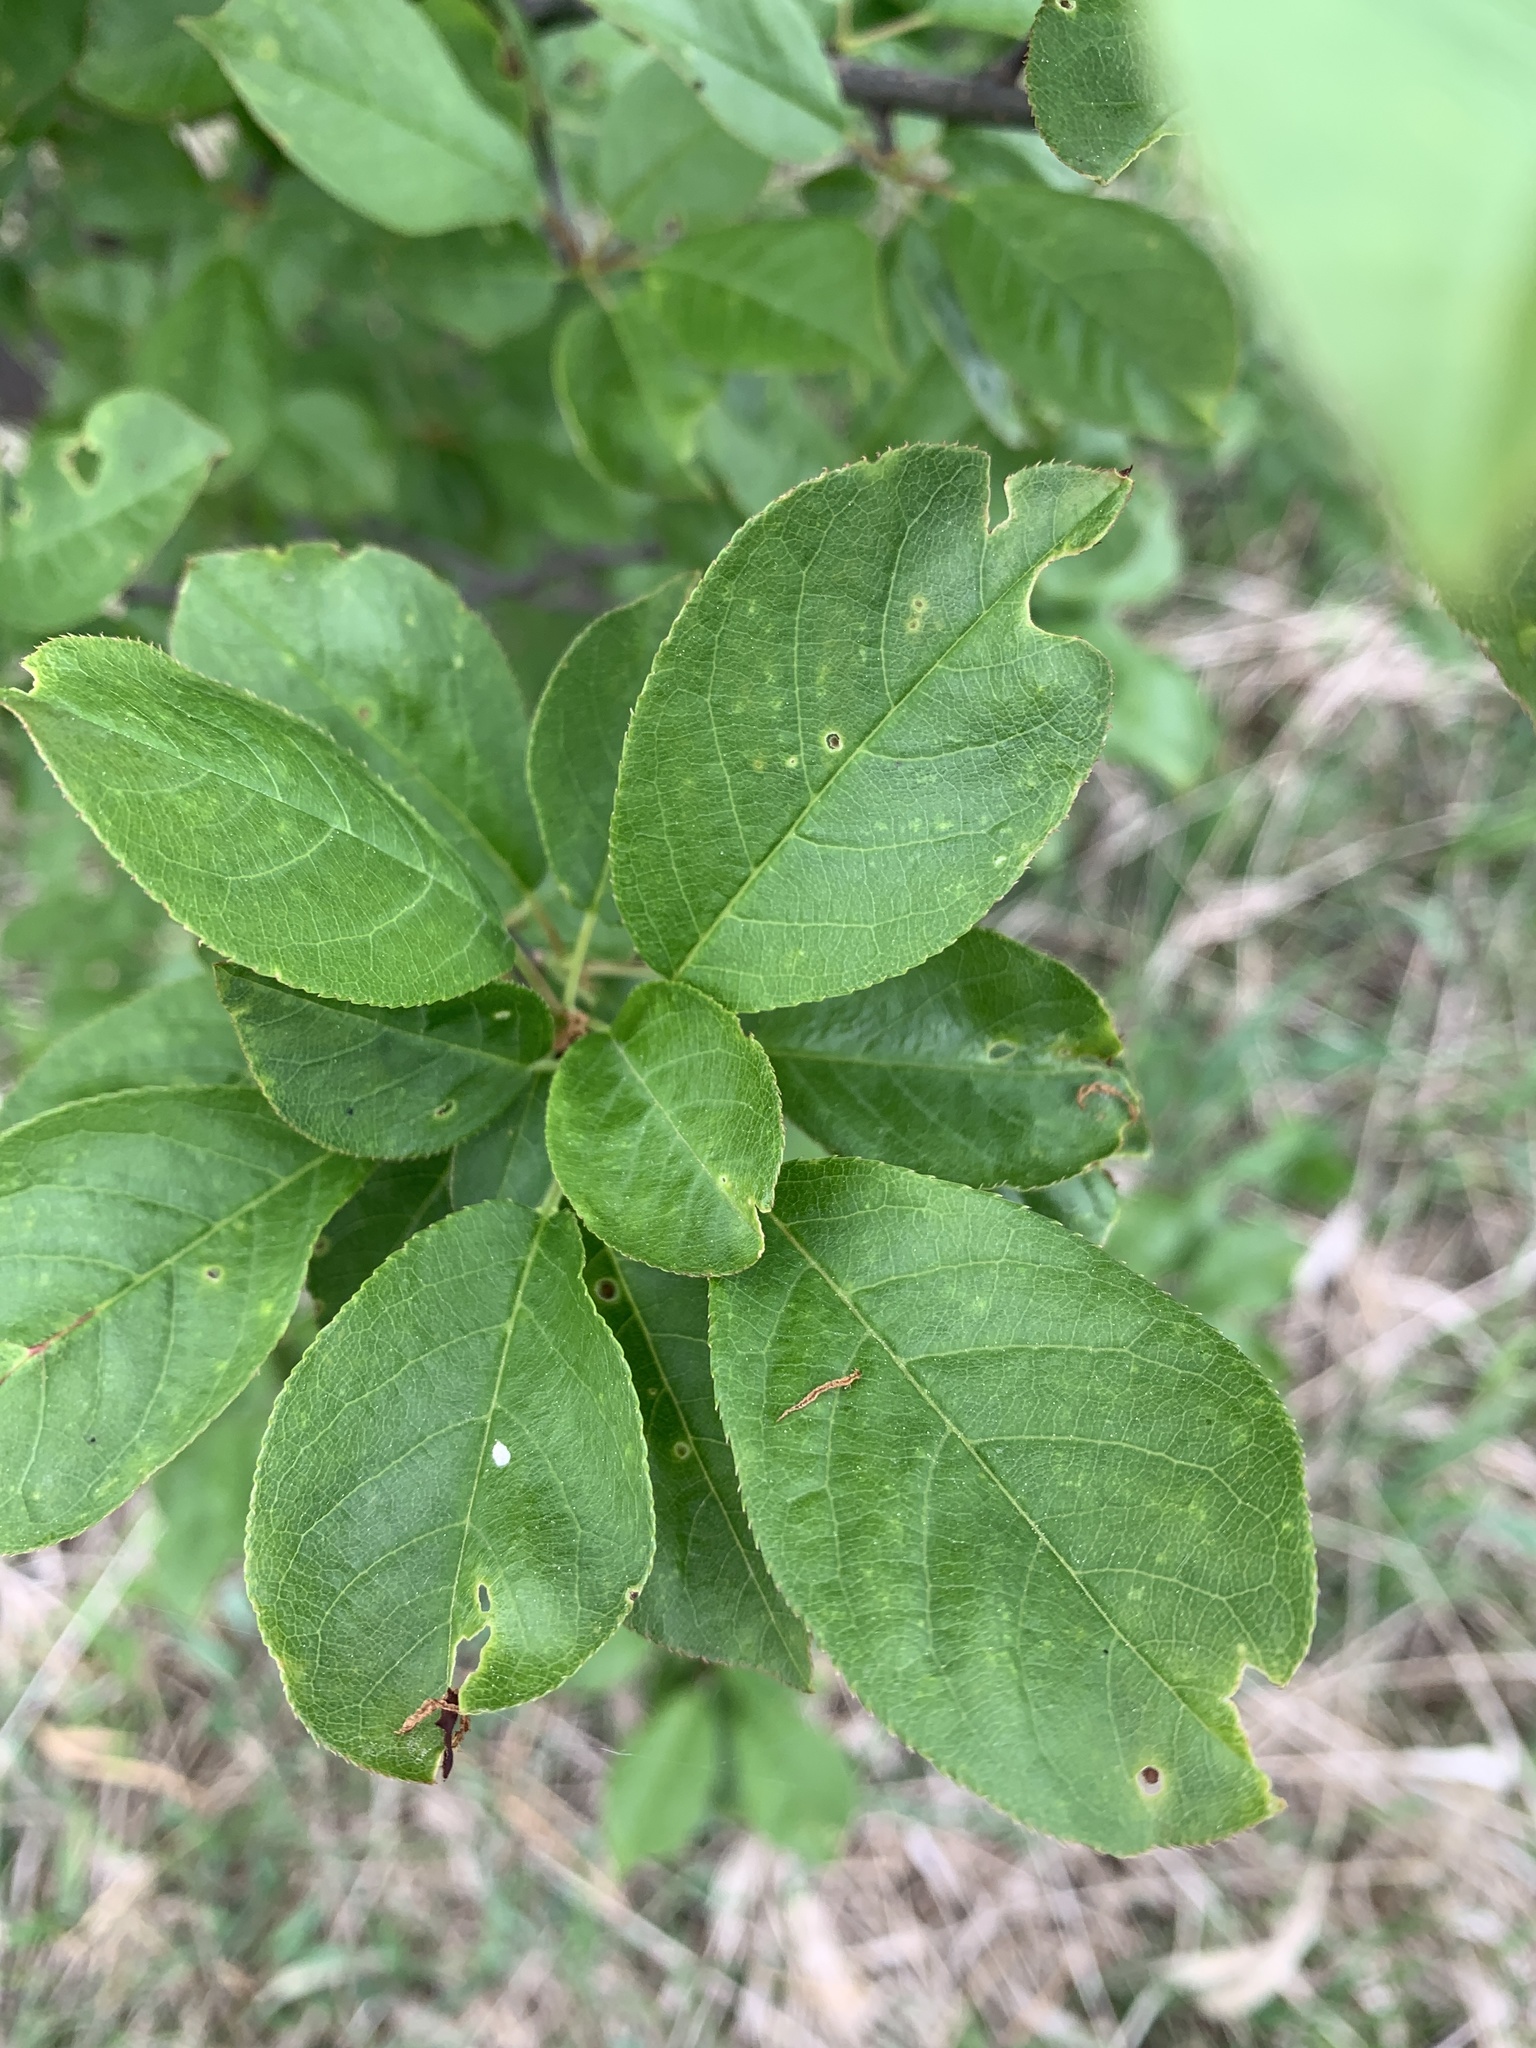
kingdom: Plantae
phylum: Tracheophyta
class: Magnoliopsida
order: Rosales
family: Rosaceae
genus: Prunus
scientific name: Prunus virginiana
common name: Chokecherry
